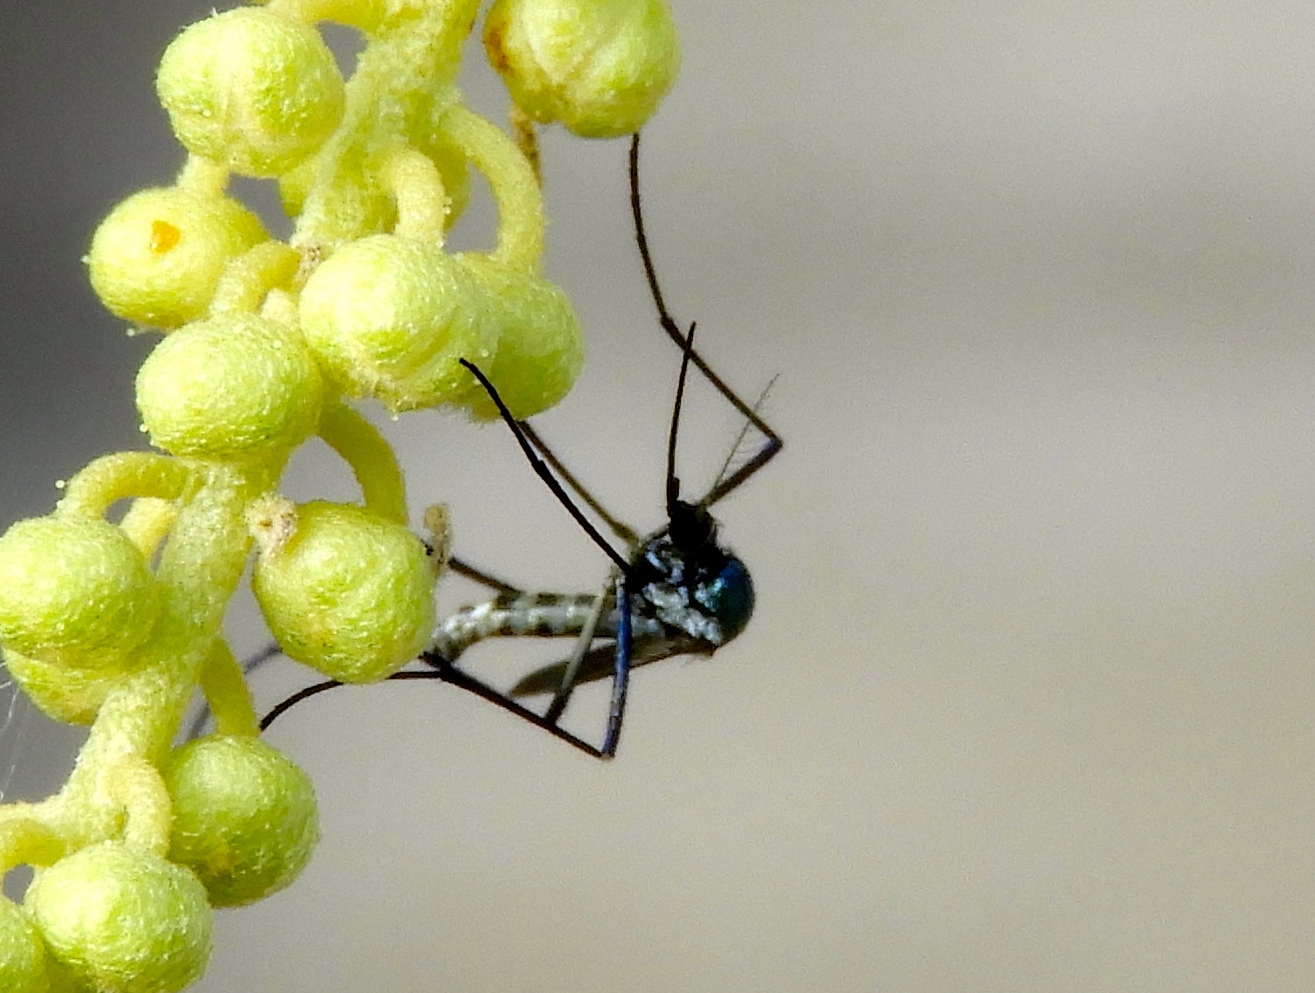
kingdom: Animalia
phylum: Arthropoda
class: Insecta
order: Diptera
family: Culicidae
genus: Aedes
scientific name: Aedes
